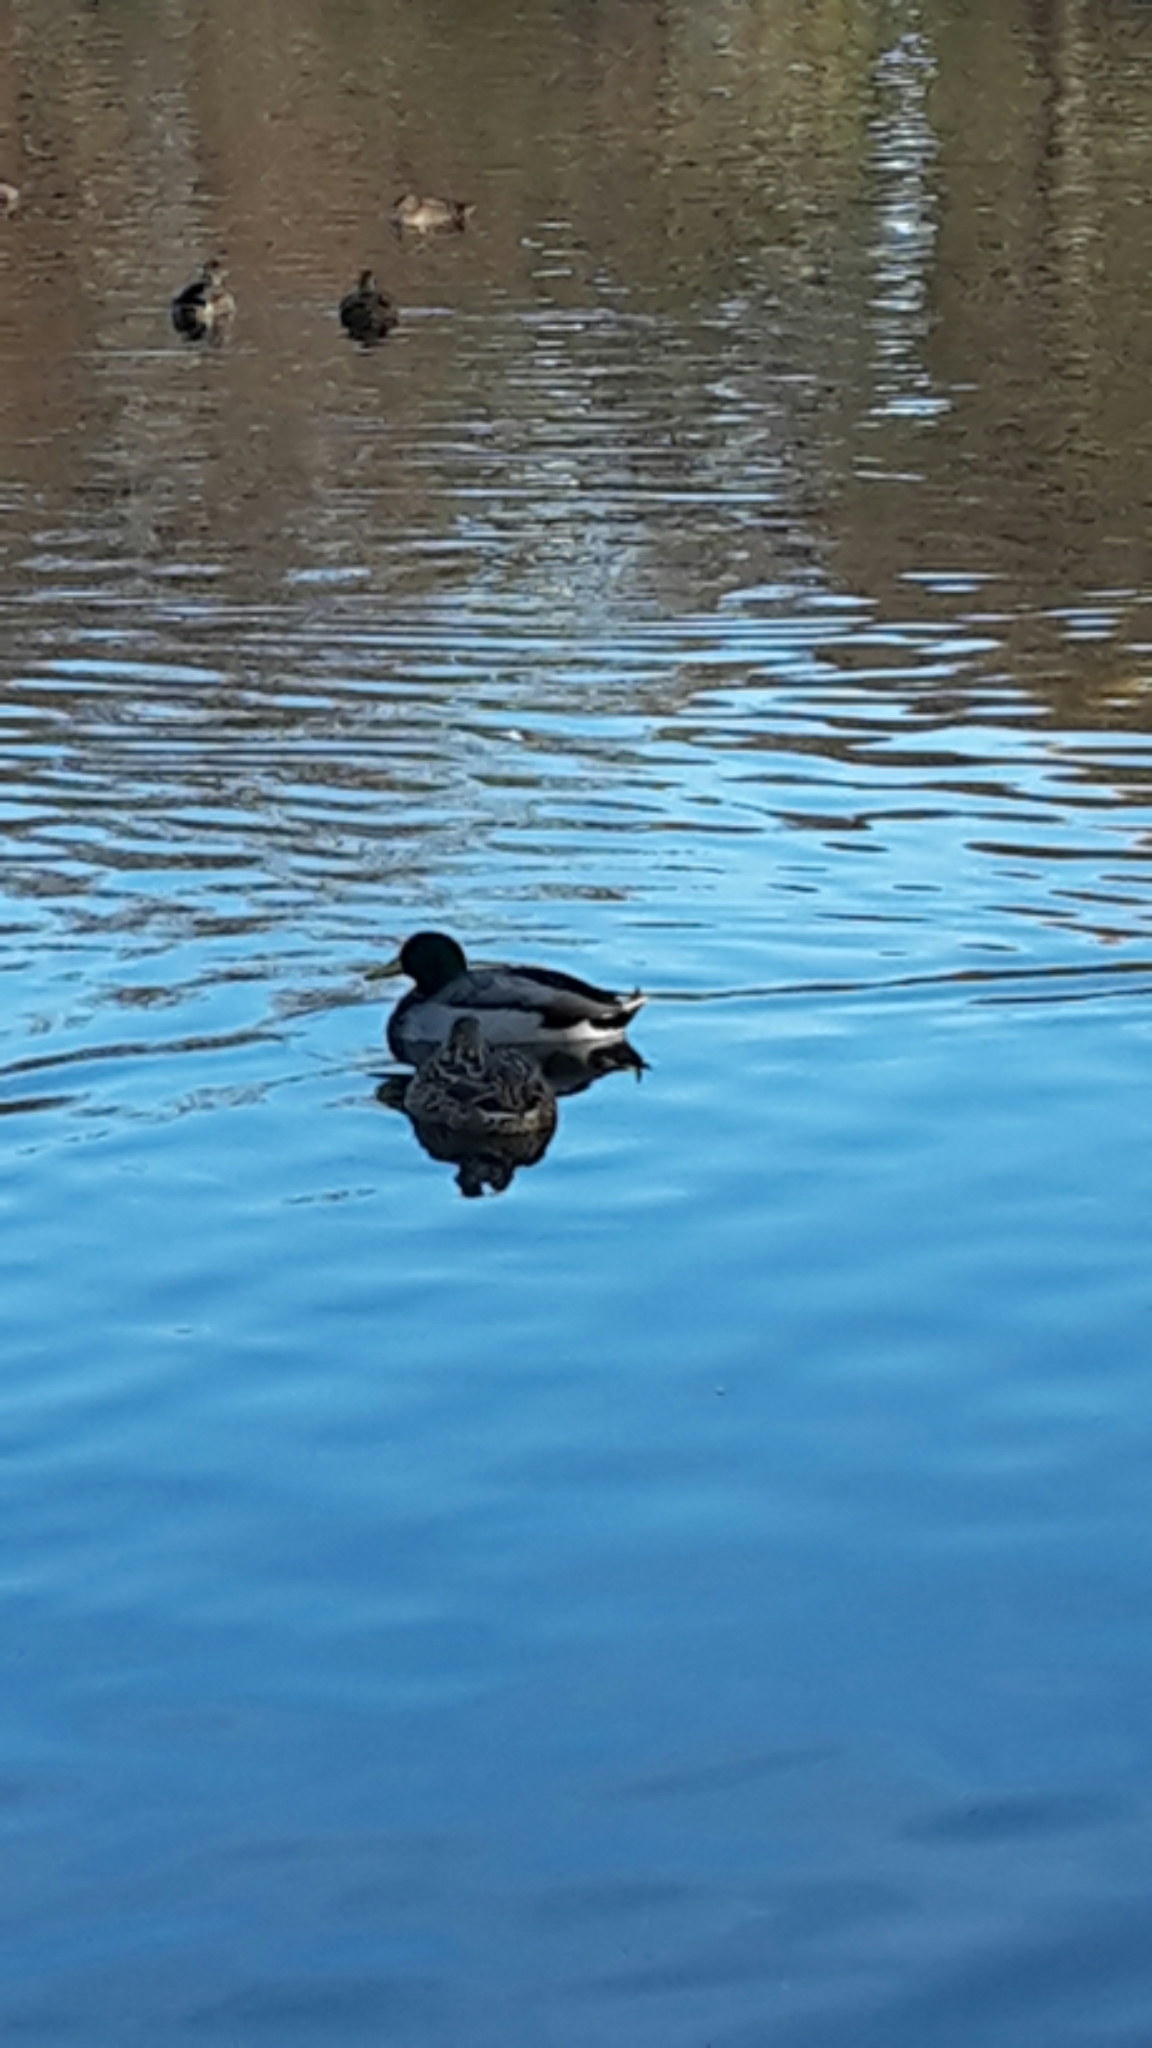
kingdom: Animalia
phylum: Chordata
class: Aves
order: Anseriformes
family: Anatidae
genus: Anas
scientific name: Anas platyrhynchos
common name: Mallard
